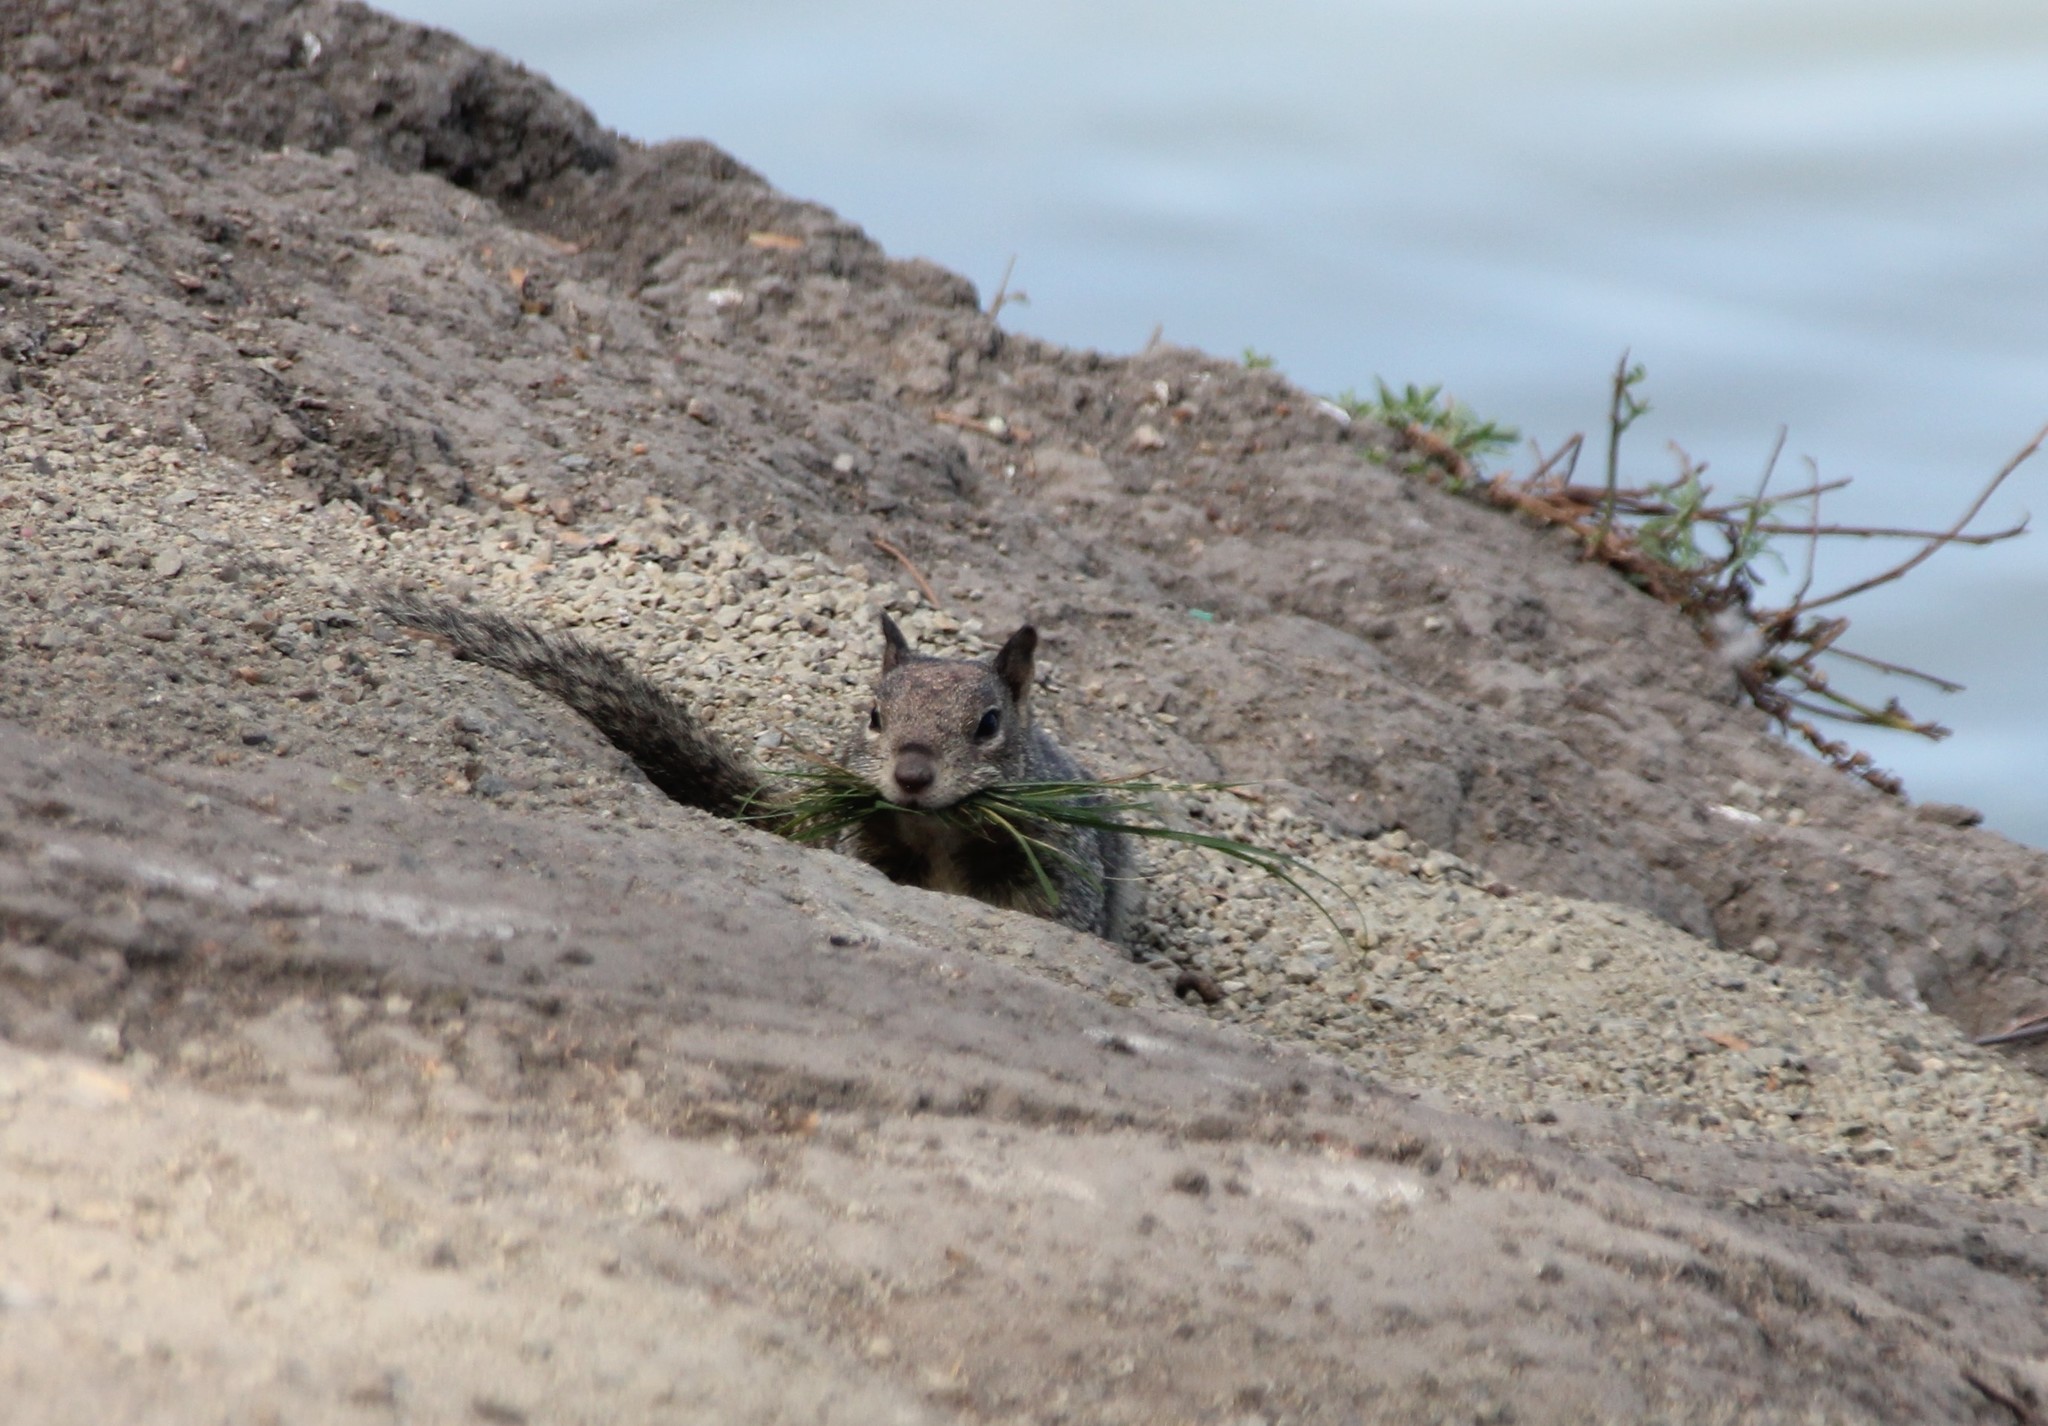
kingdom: Animalia
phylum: Chordata
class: Mammalia
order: Rodentia
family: Sciuridae
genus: Otospermophilus
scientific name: Otospermophilus beecheyi
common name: California ground squirrel
